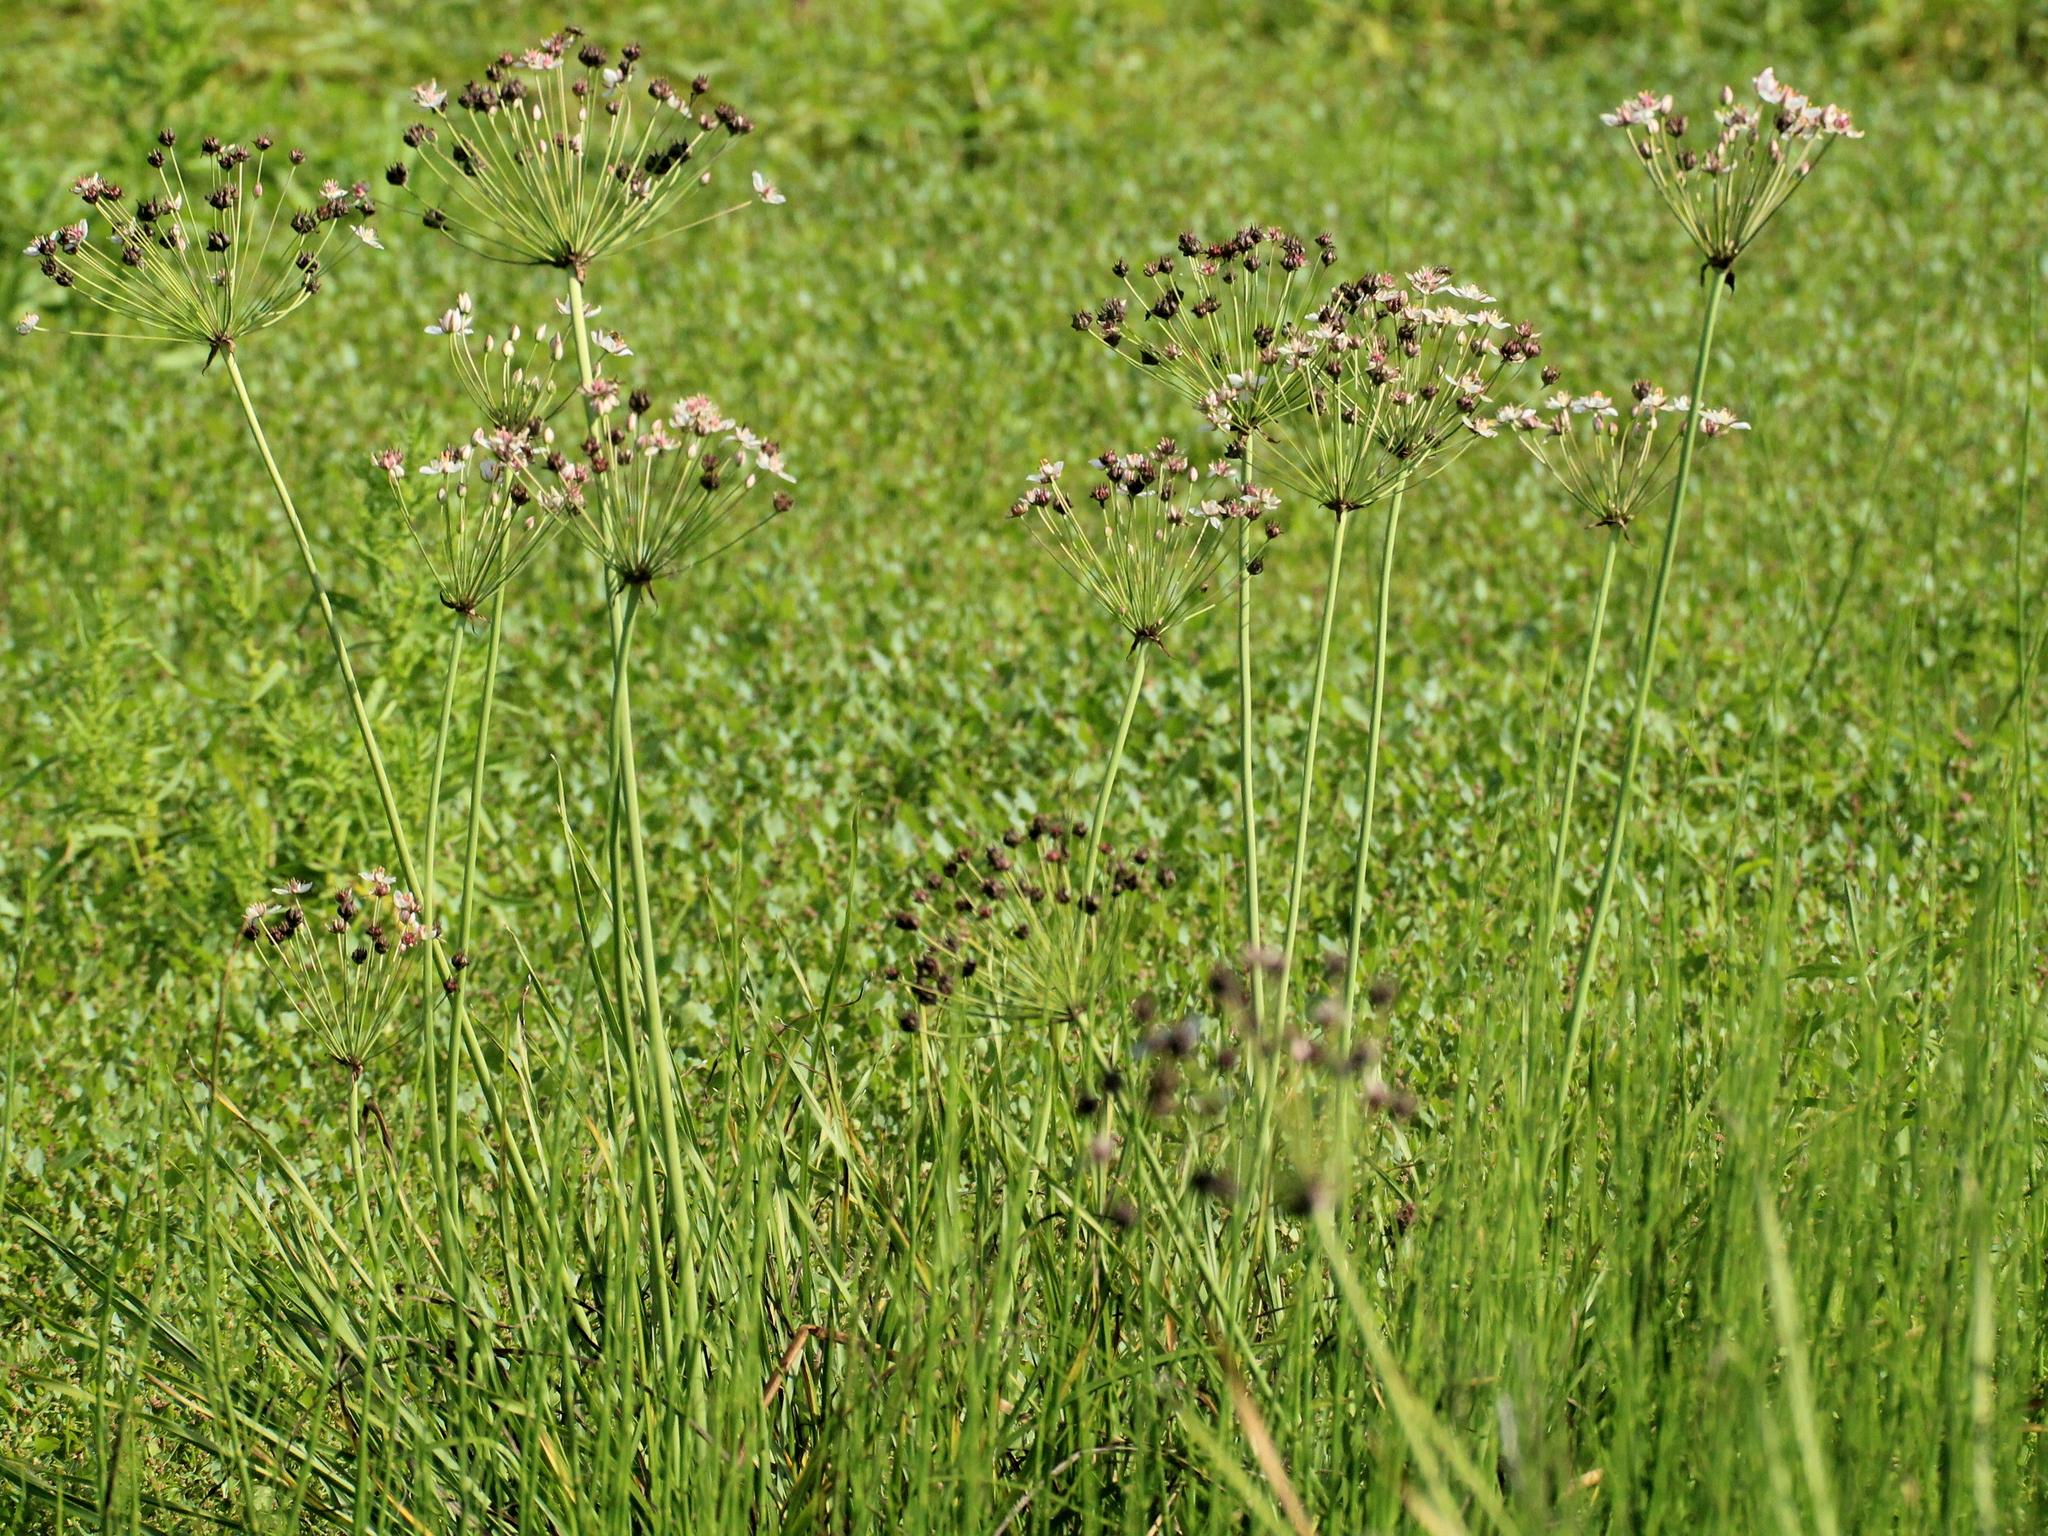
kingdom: Plantae
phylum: Tracheophyta
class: Liliopsida
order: Alismatales
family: Butomaceae
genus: Butomus
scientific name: Butomus umbellatus
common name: Flowering-rush
